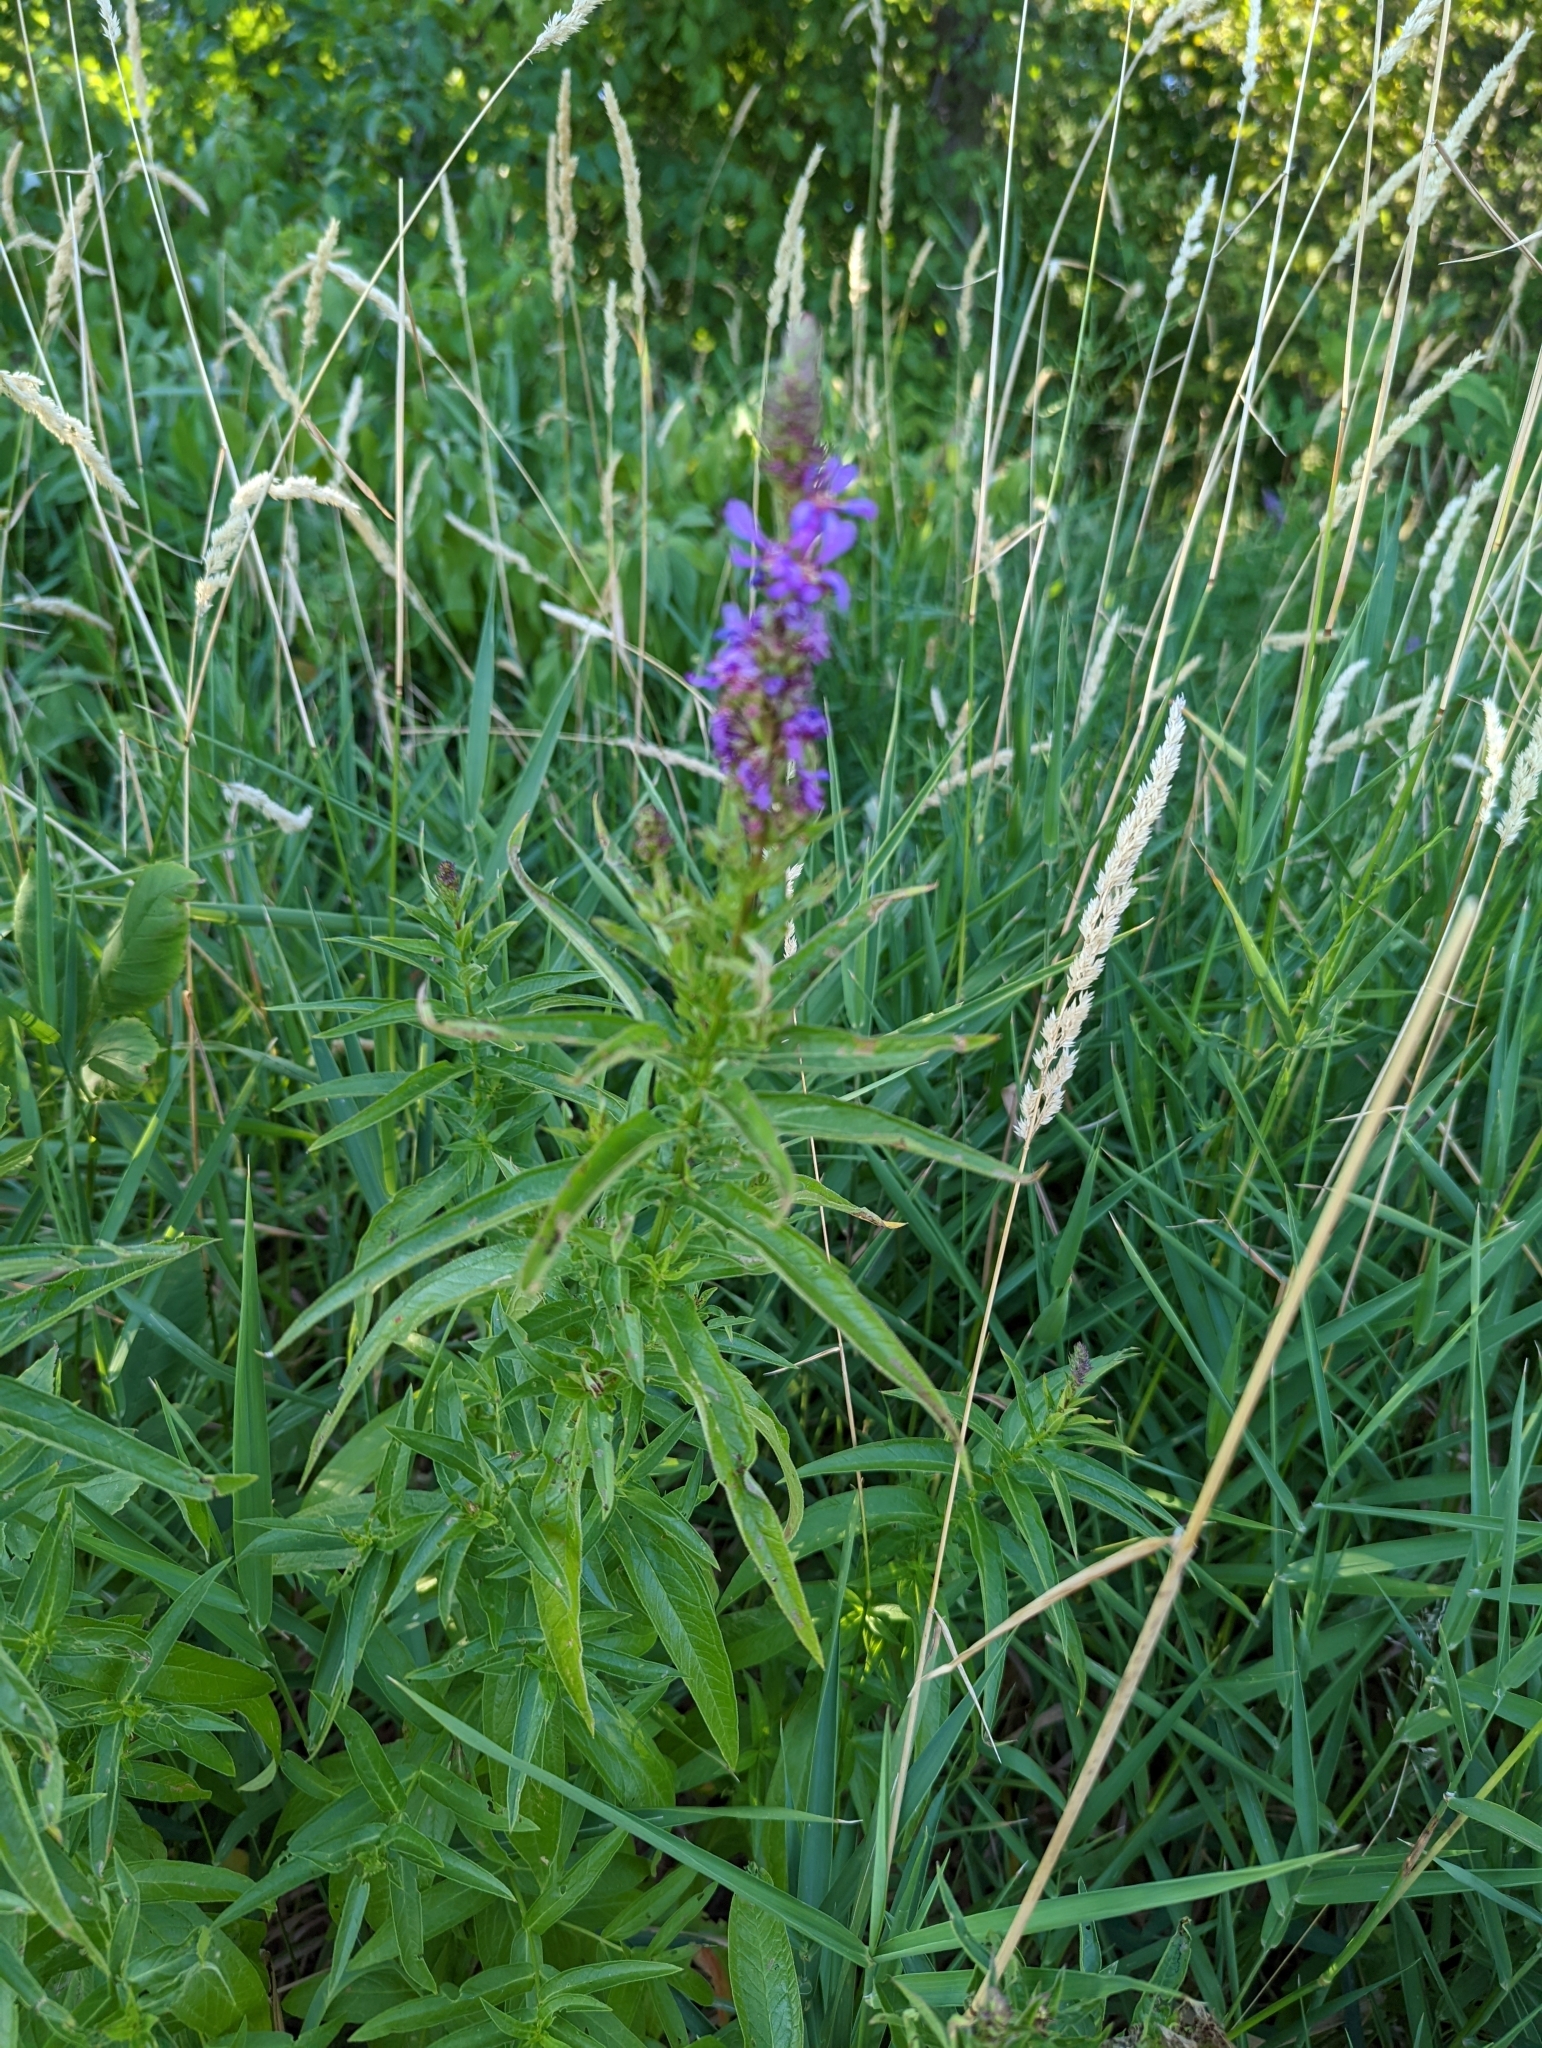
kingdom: Plantae
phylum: Tracheophyta
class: Magnoliopsida
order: Myrtales
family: Lythraceae
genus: Lythrum
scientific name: Lythrum salicaria
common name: Purple loosestrife
